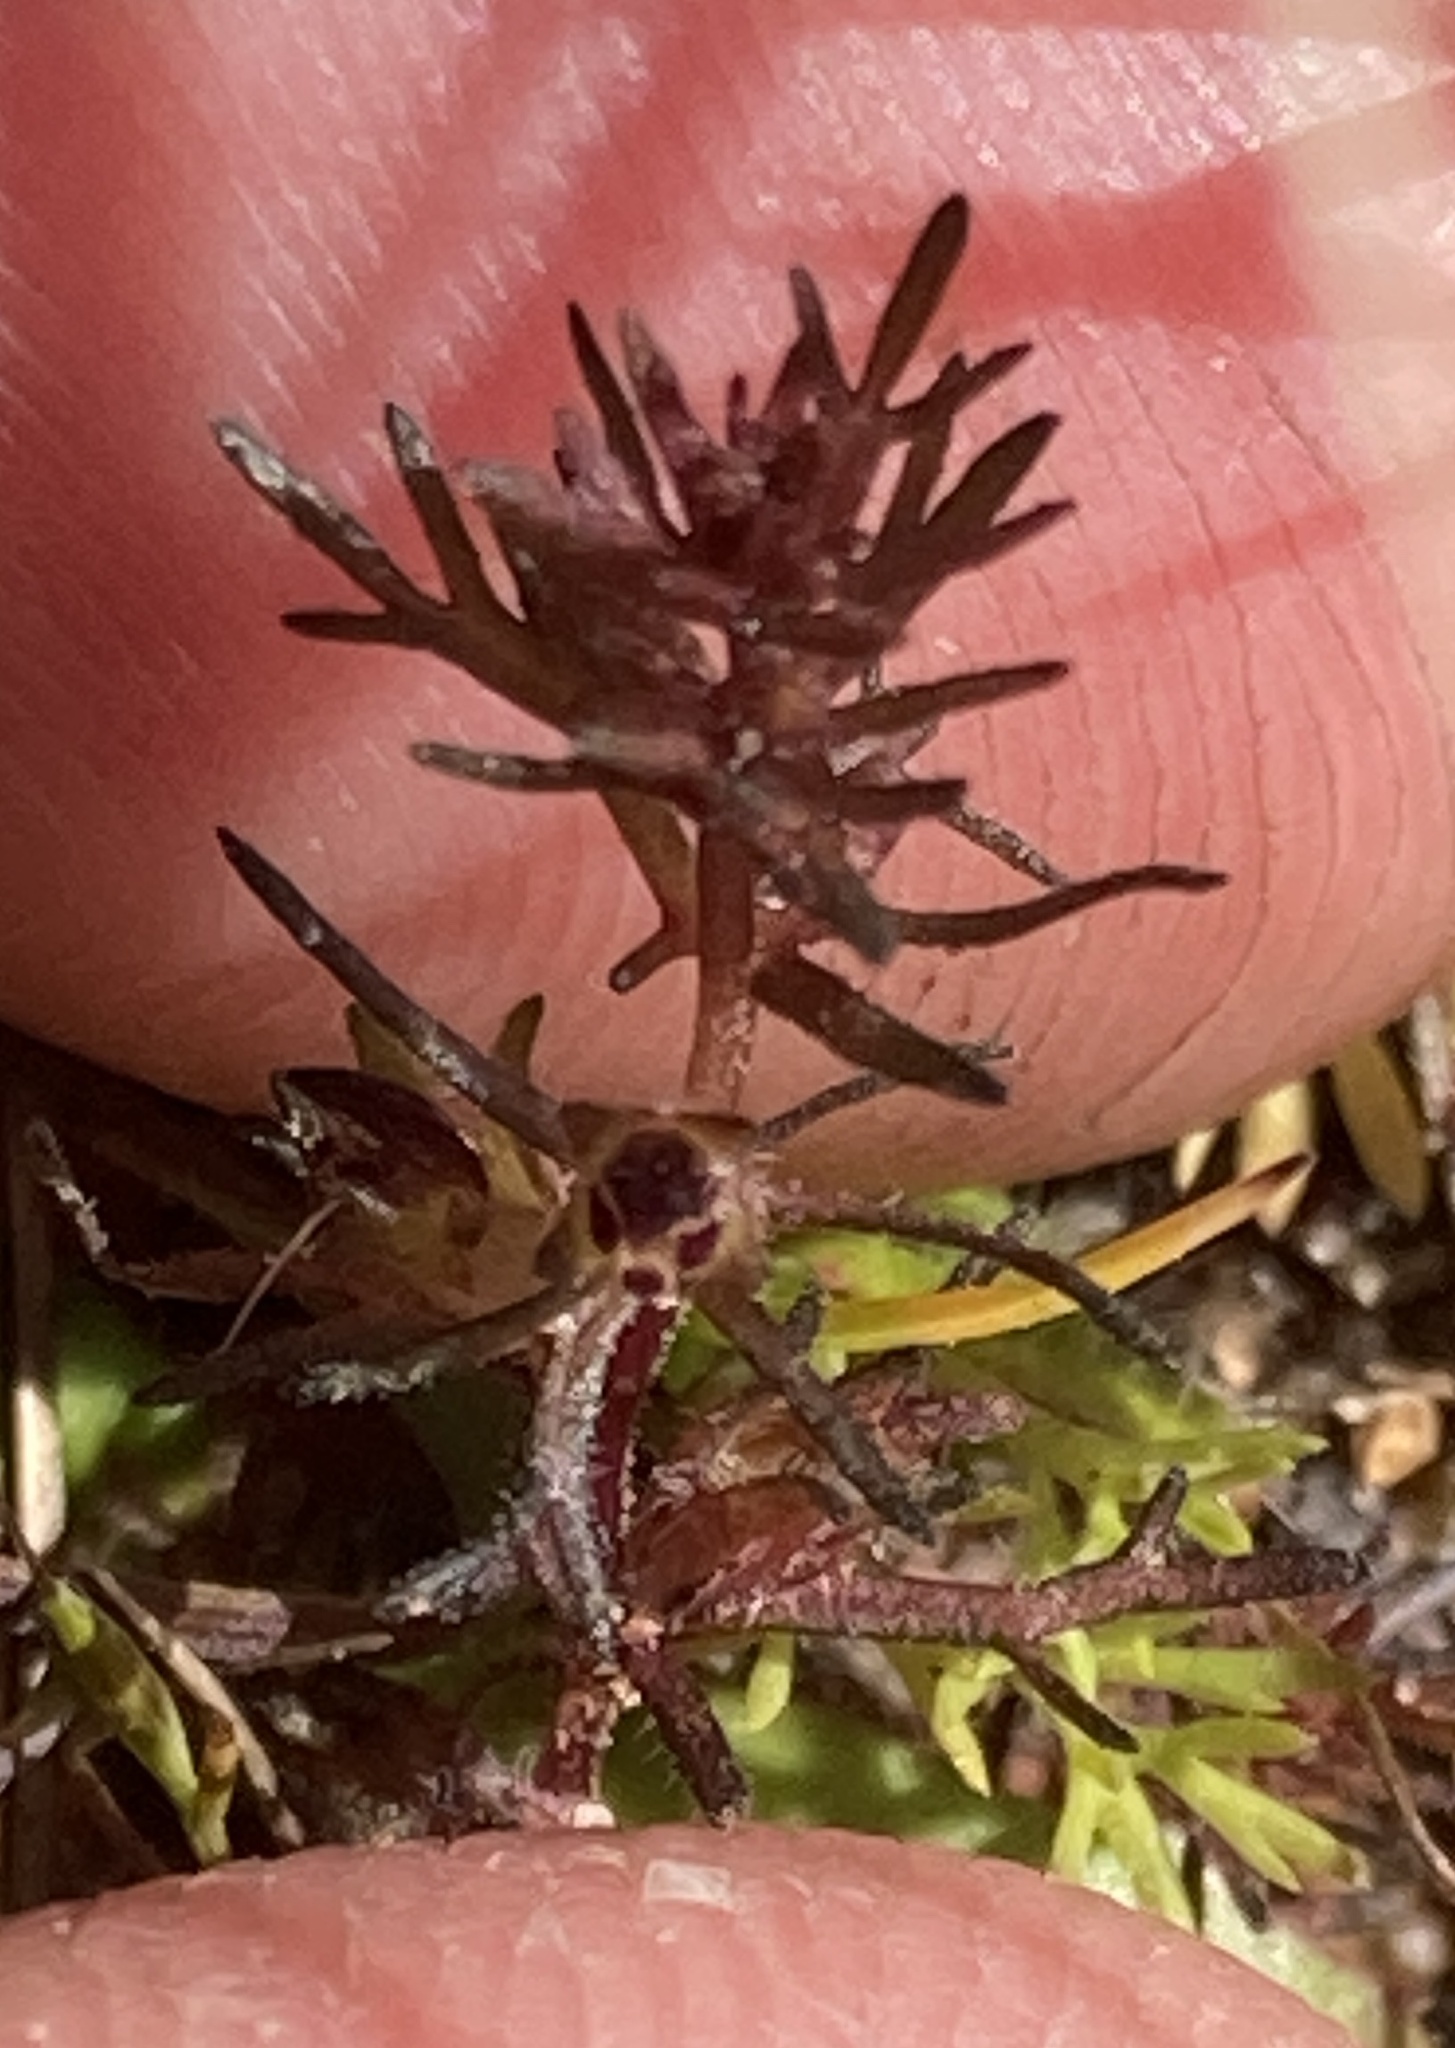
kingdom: Plantae
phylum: Tracheophyta
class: Magnoliopsida
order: Lamiales
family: Orobanchaceae
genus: Triphysaria
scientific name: Triphysaria pusilla
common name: Dwarf false owl-clover
